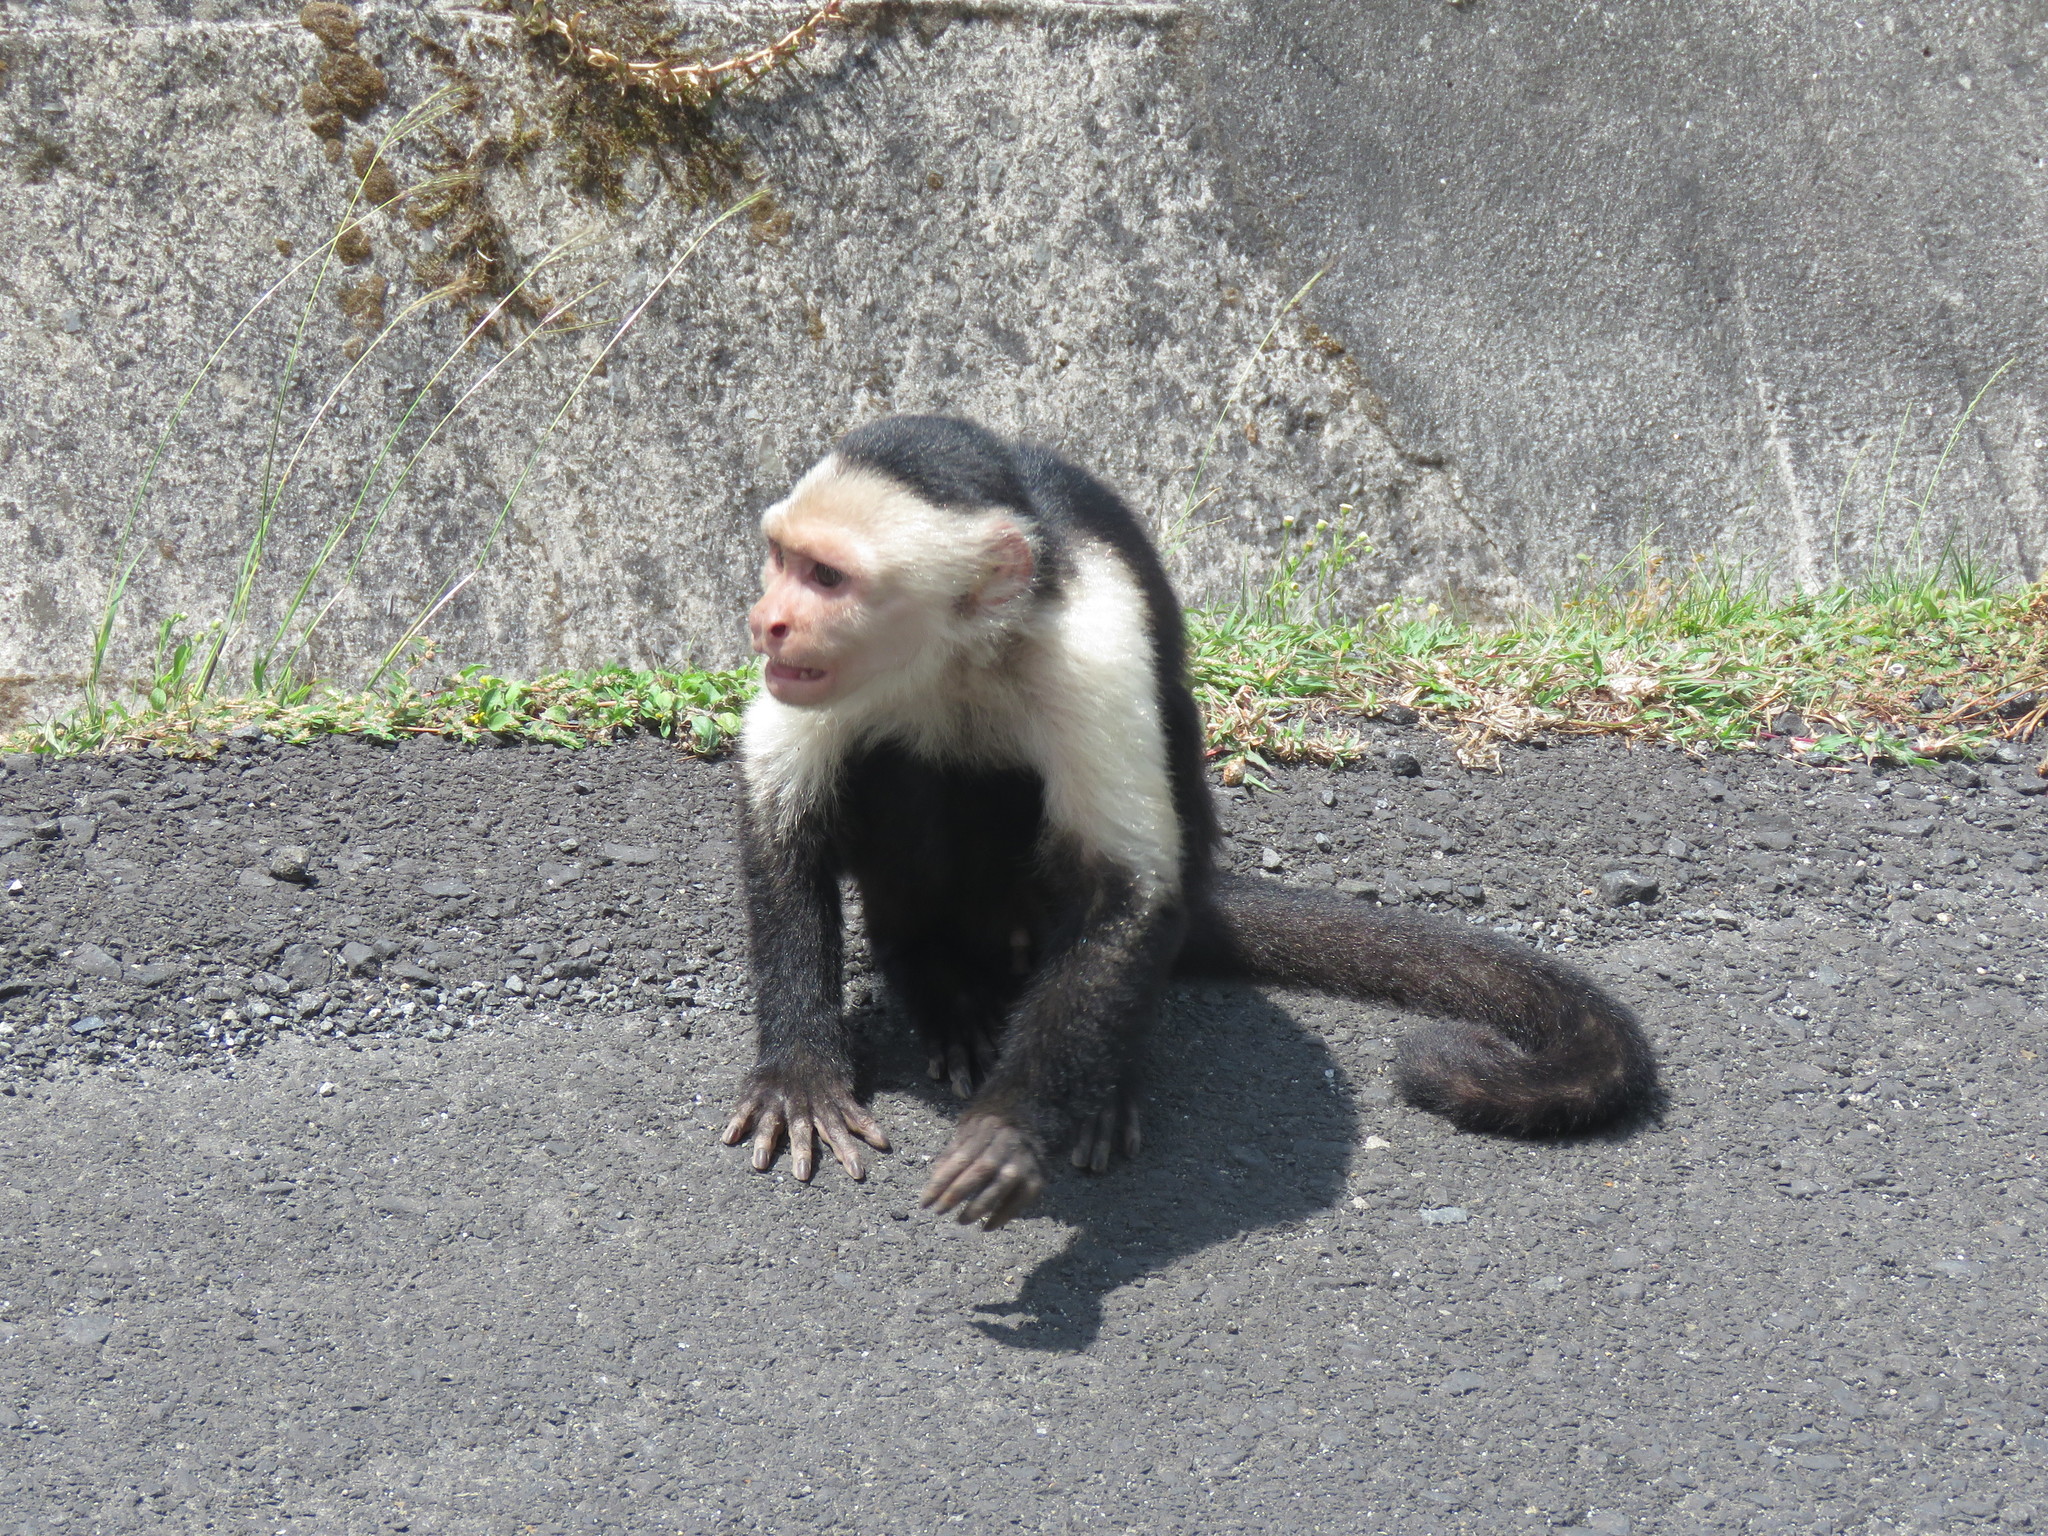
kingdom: Animalia
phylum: Chordata
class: Mammalia
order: Primates
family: Cebidae
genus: Cebus
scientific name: Cebus imitator
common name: Panamanian white-faced capuchin
